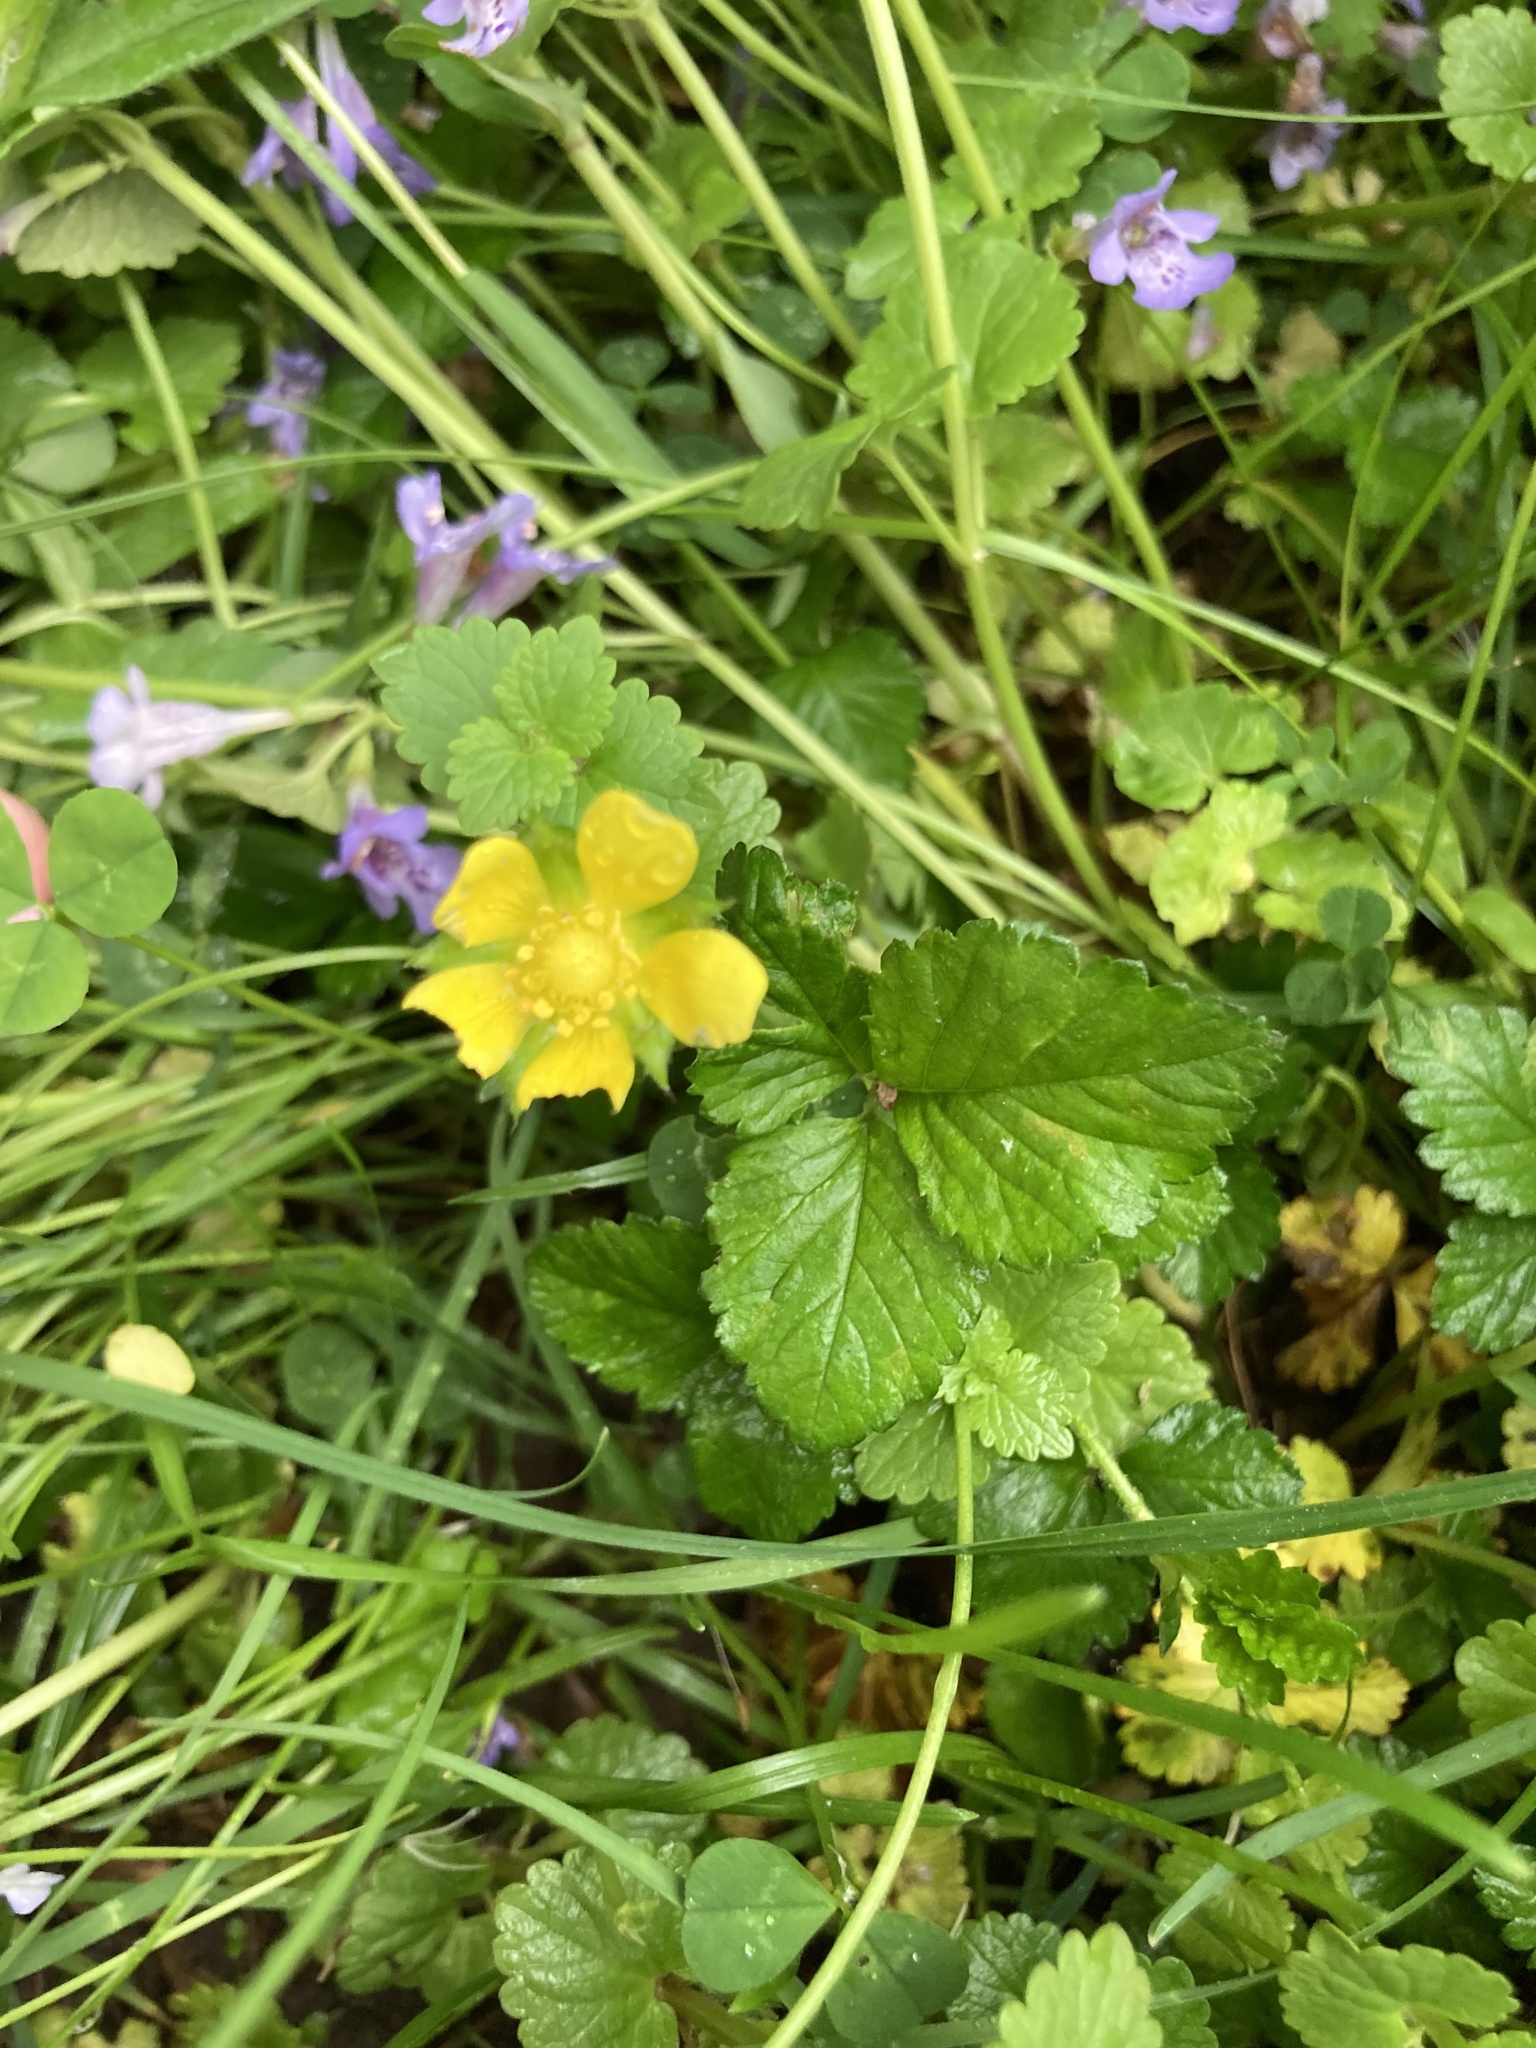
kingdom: Plantae
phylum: Tracheophyta
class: Magnoliopsida
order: Rosales
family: Rosaceae
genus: Potentilla
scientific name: Potentilla indica
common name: Yellow-flowered strawberry
